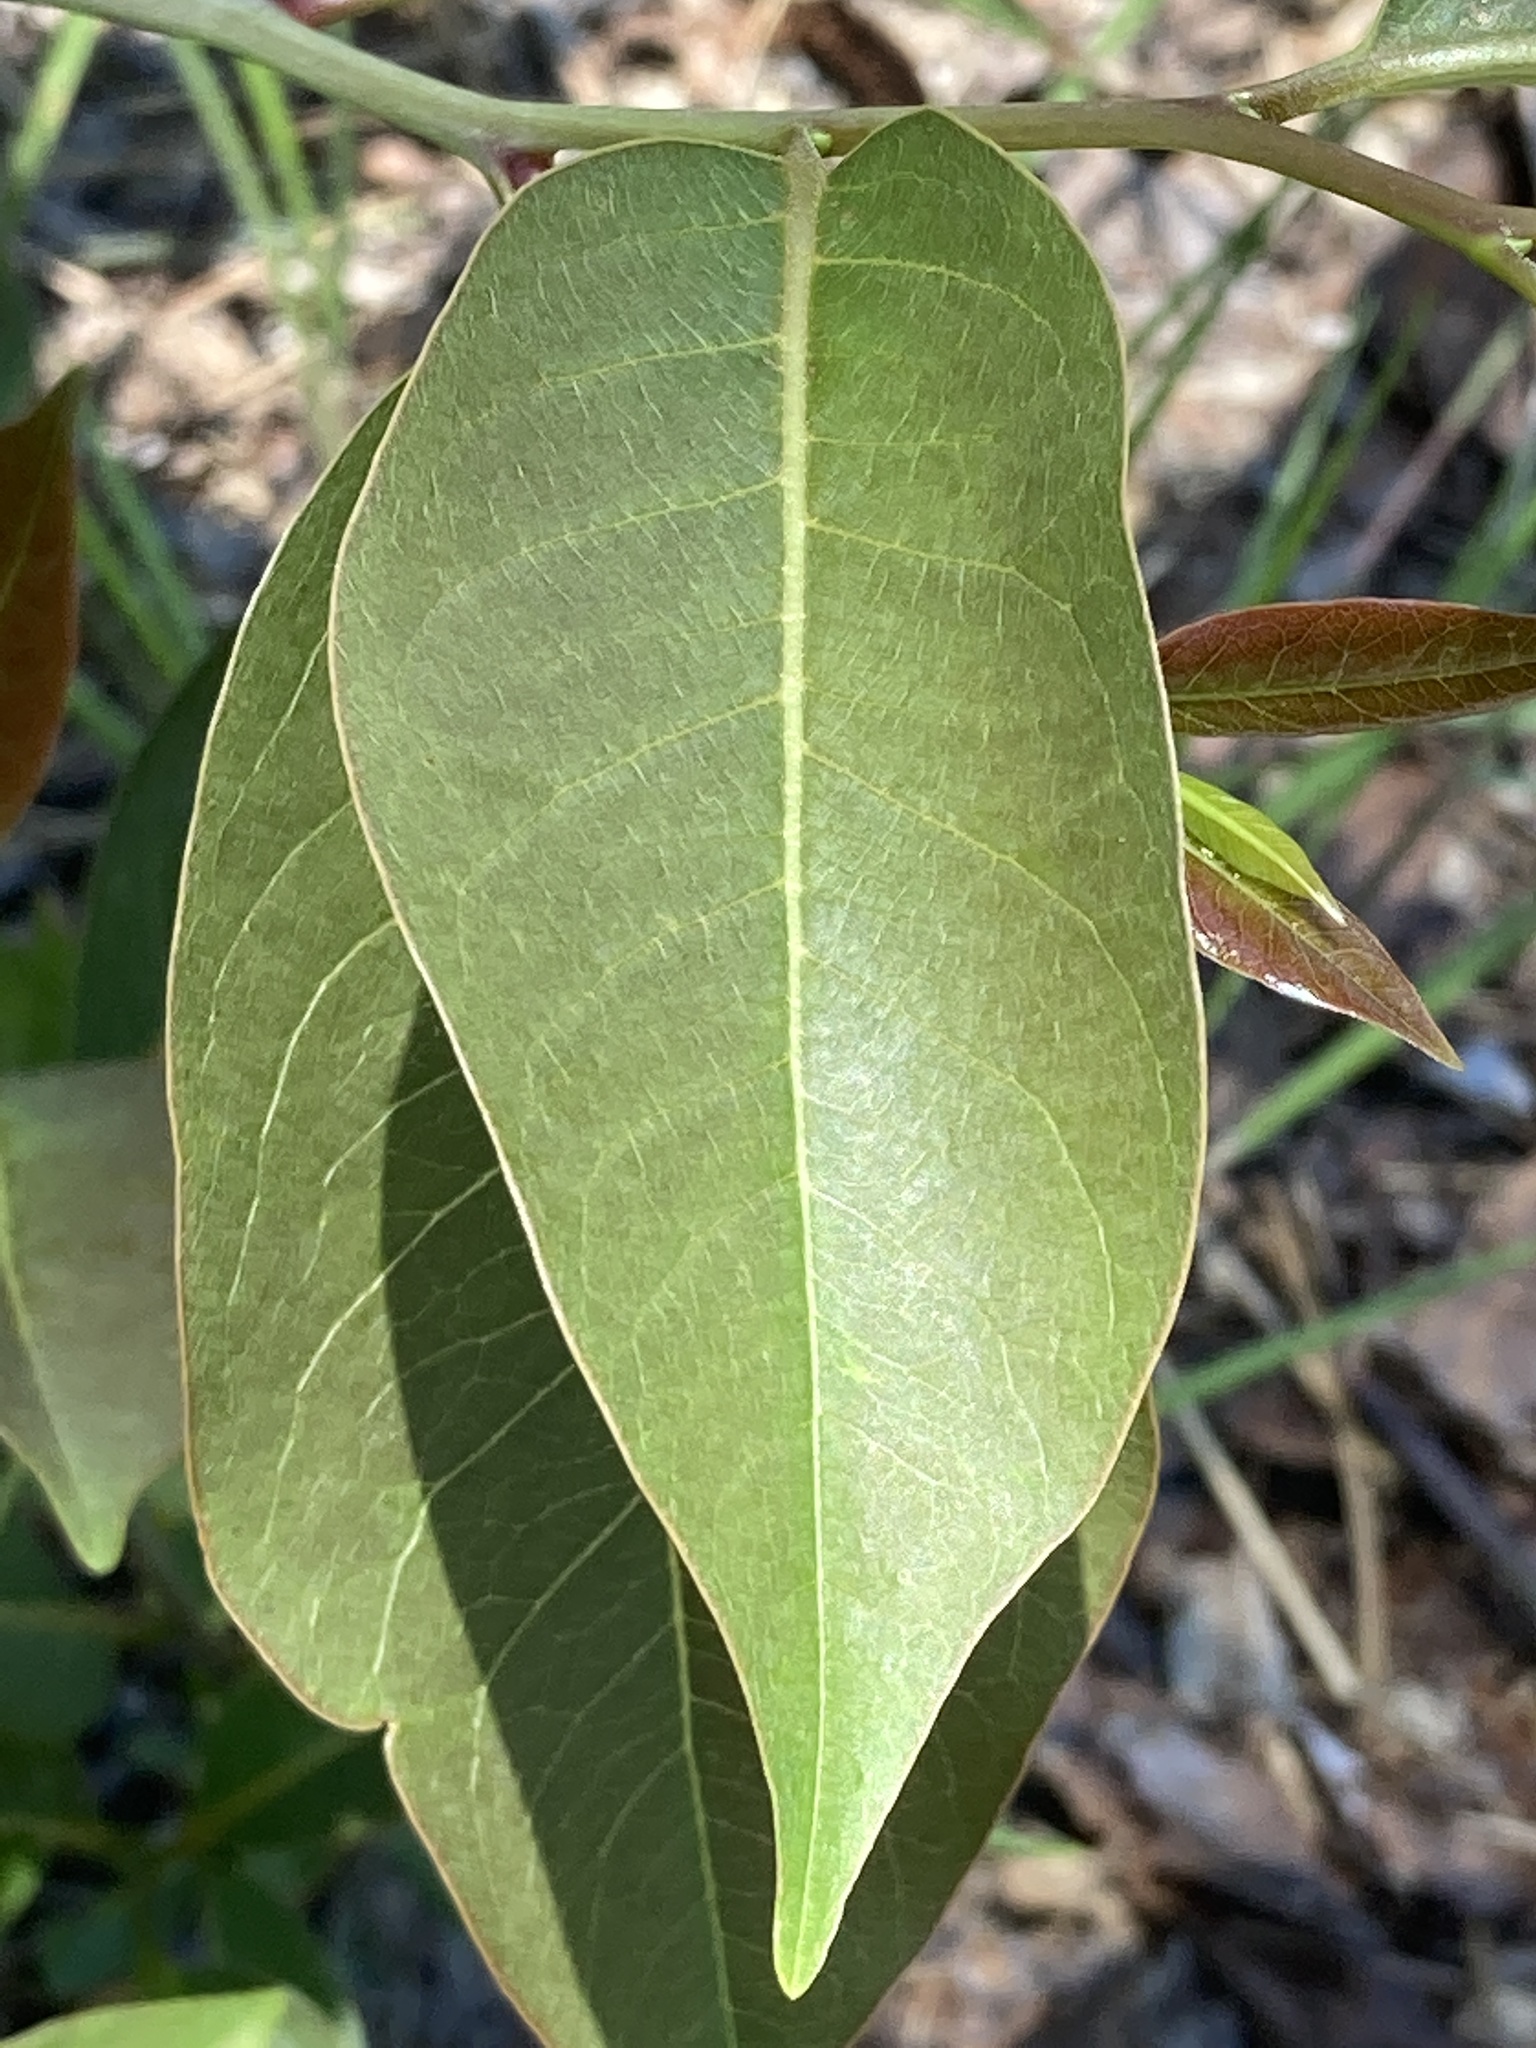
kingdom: Plantae
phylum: Tracheophyta
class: Magnoliopsida
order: Ericales
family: Ebenaceae
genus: Diospyros
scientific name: Diospyros virginiana
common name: Persimmon
